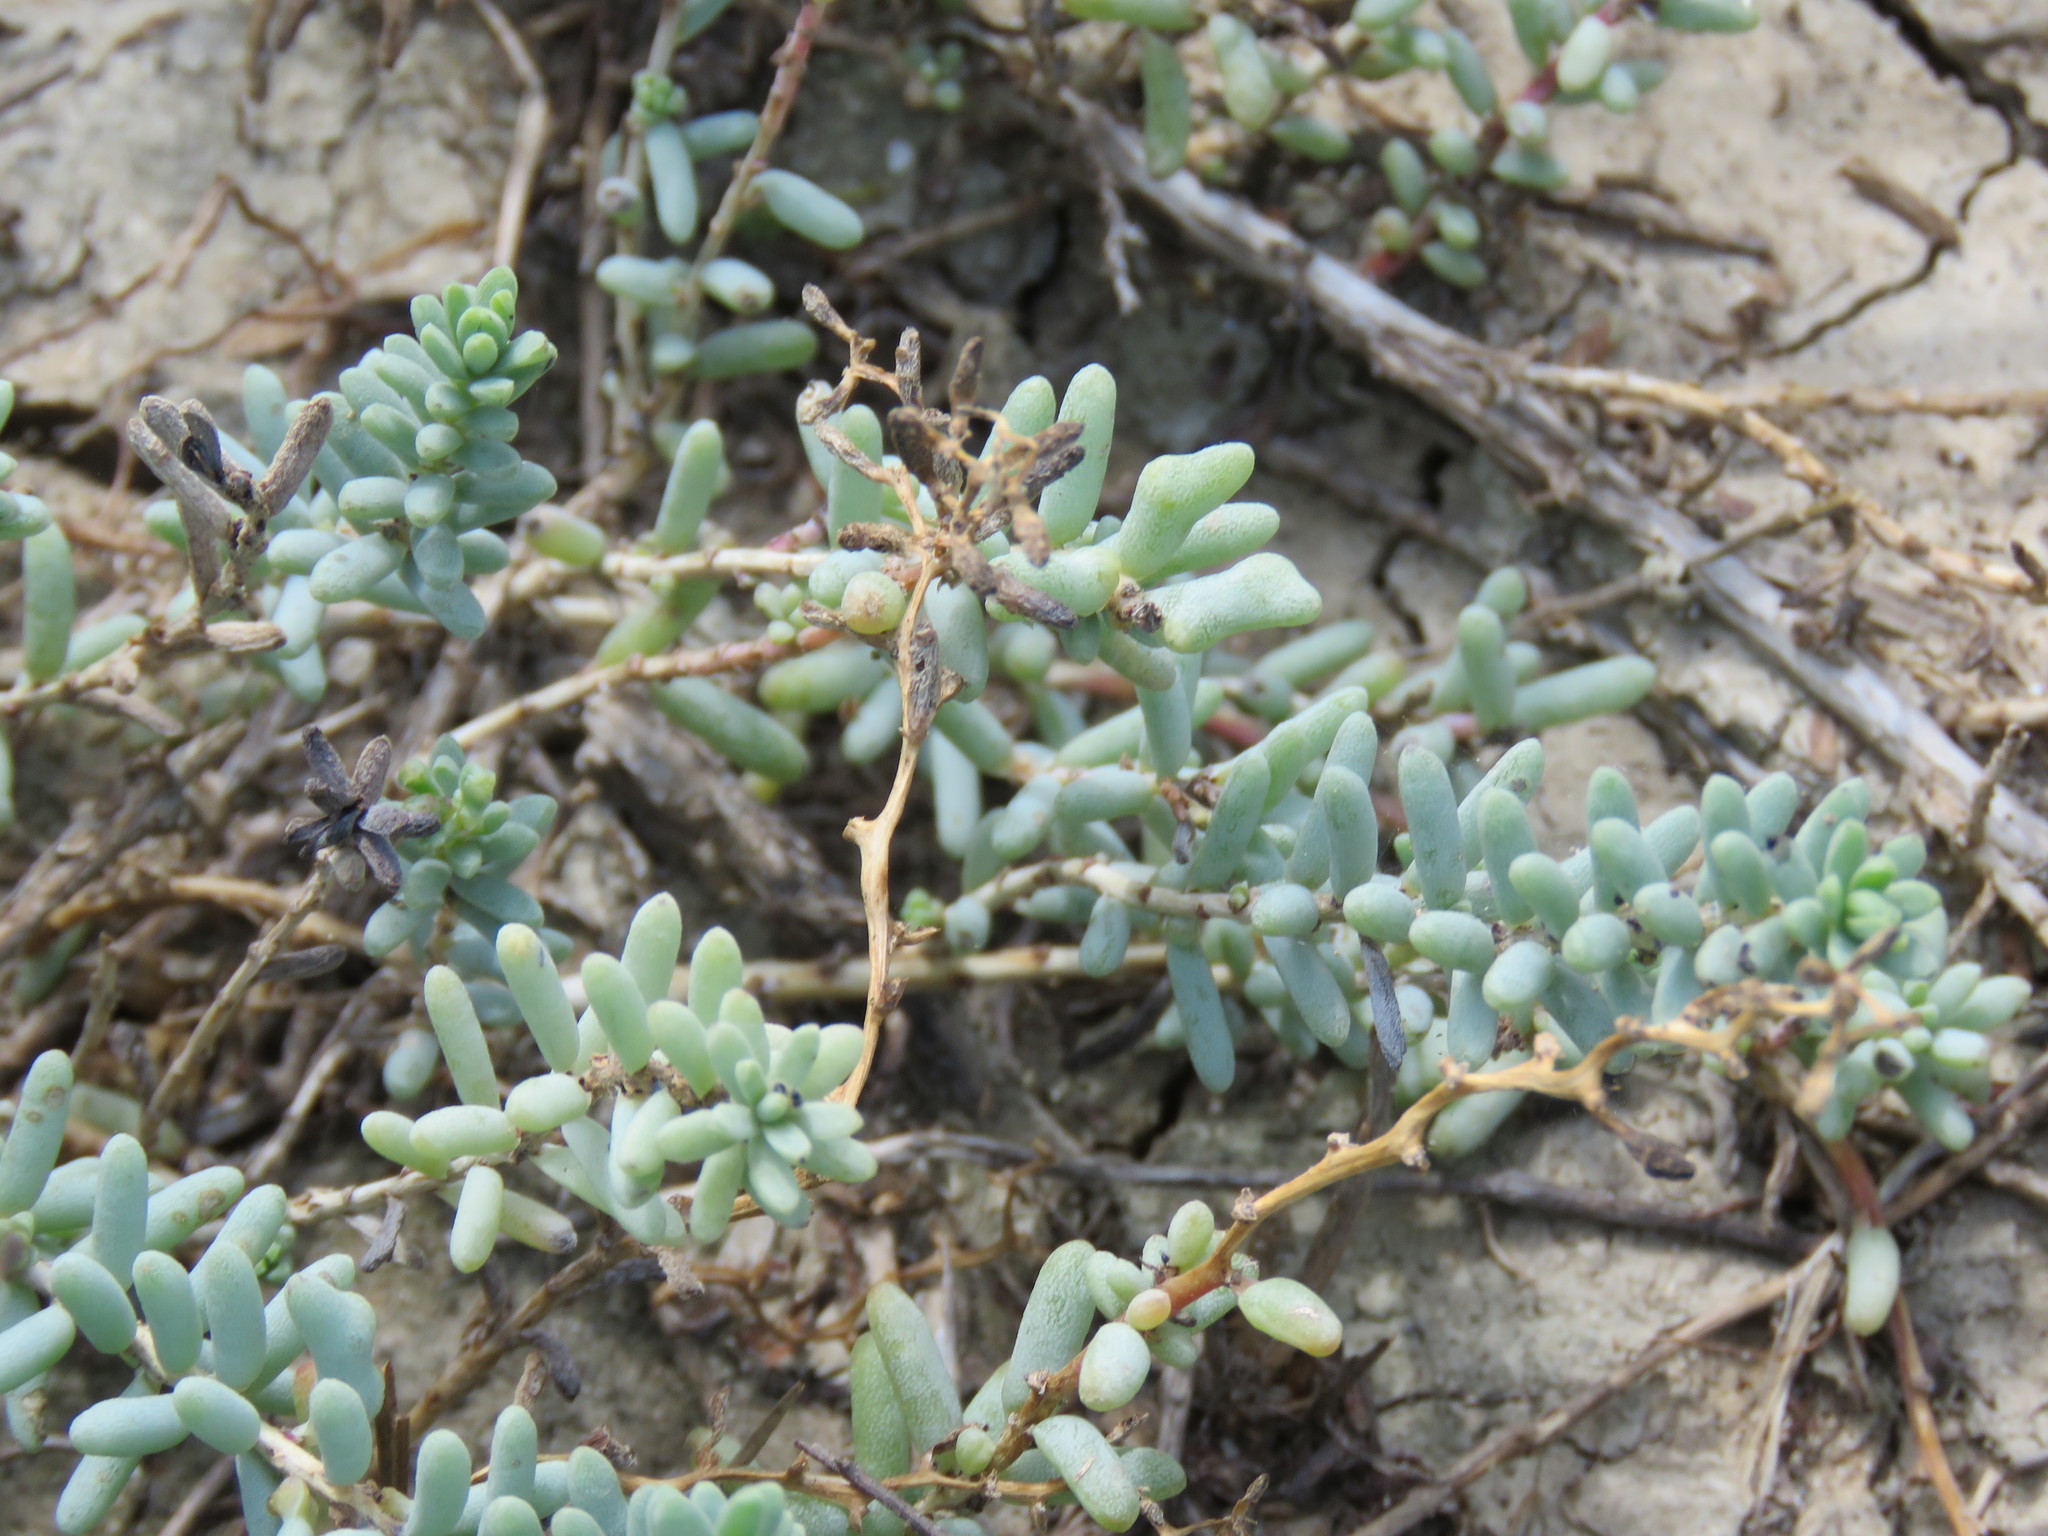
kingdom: Plantae
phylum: Tracheophyta
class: Magnoliopsida
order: Caryophyllales
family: Amaranthaceae
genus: Suaeda
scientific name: Suaeda conferta
